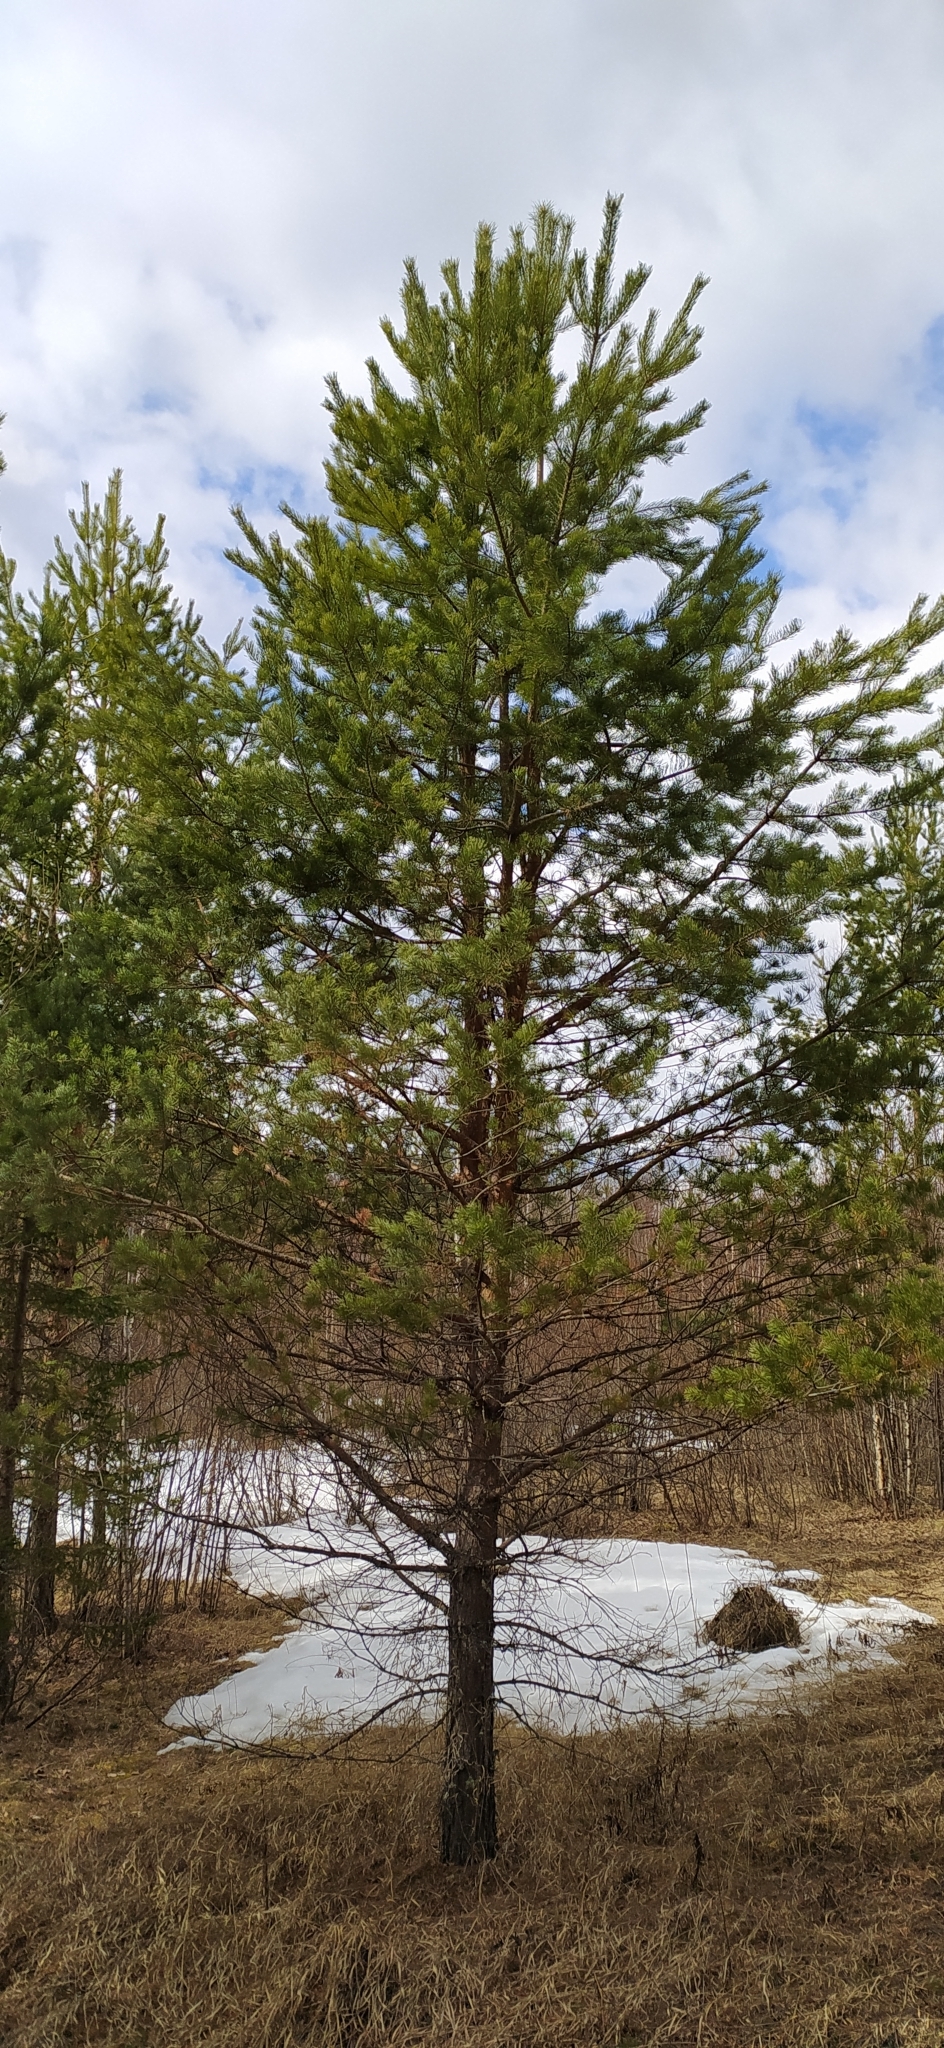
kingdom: Plantae
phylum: Tracheophyta
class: Pinopsida
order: Pinales
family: Pinaceae
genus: Pinus
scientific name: Pinus sylvestris
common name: Scots pine
